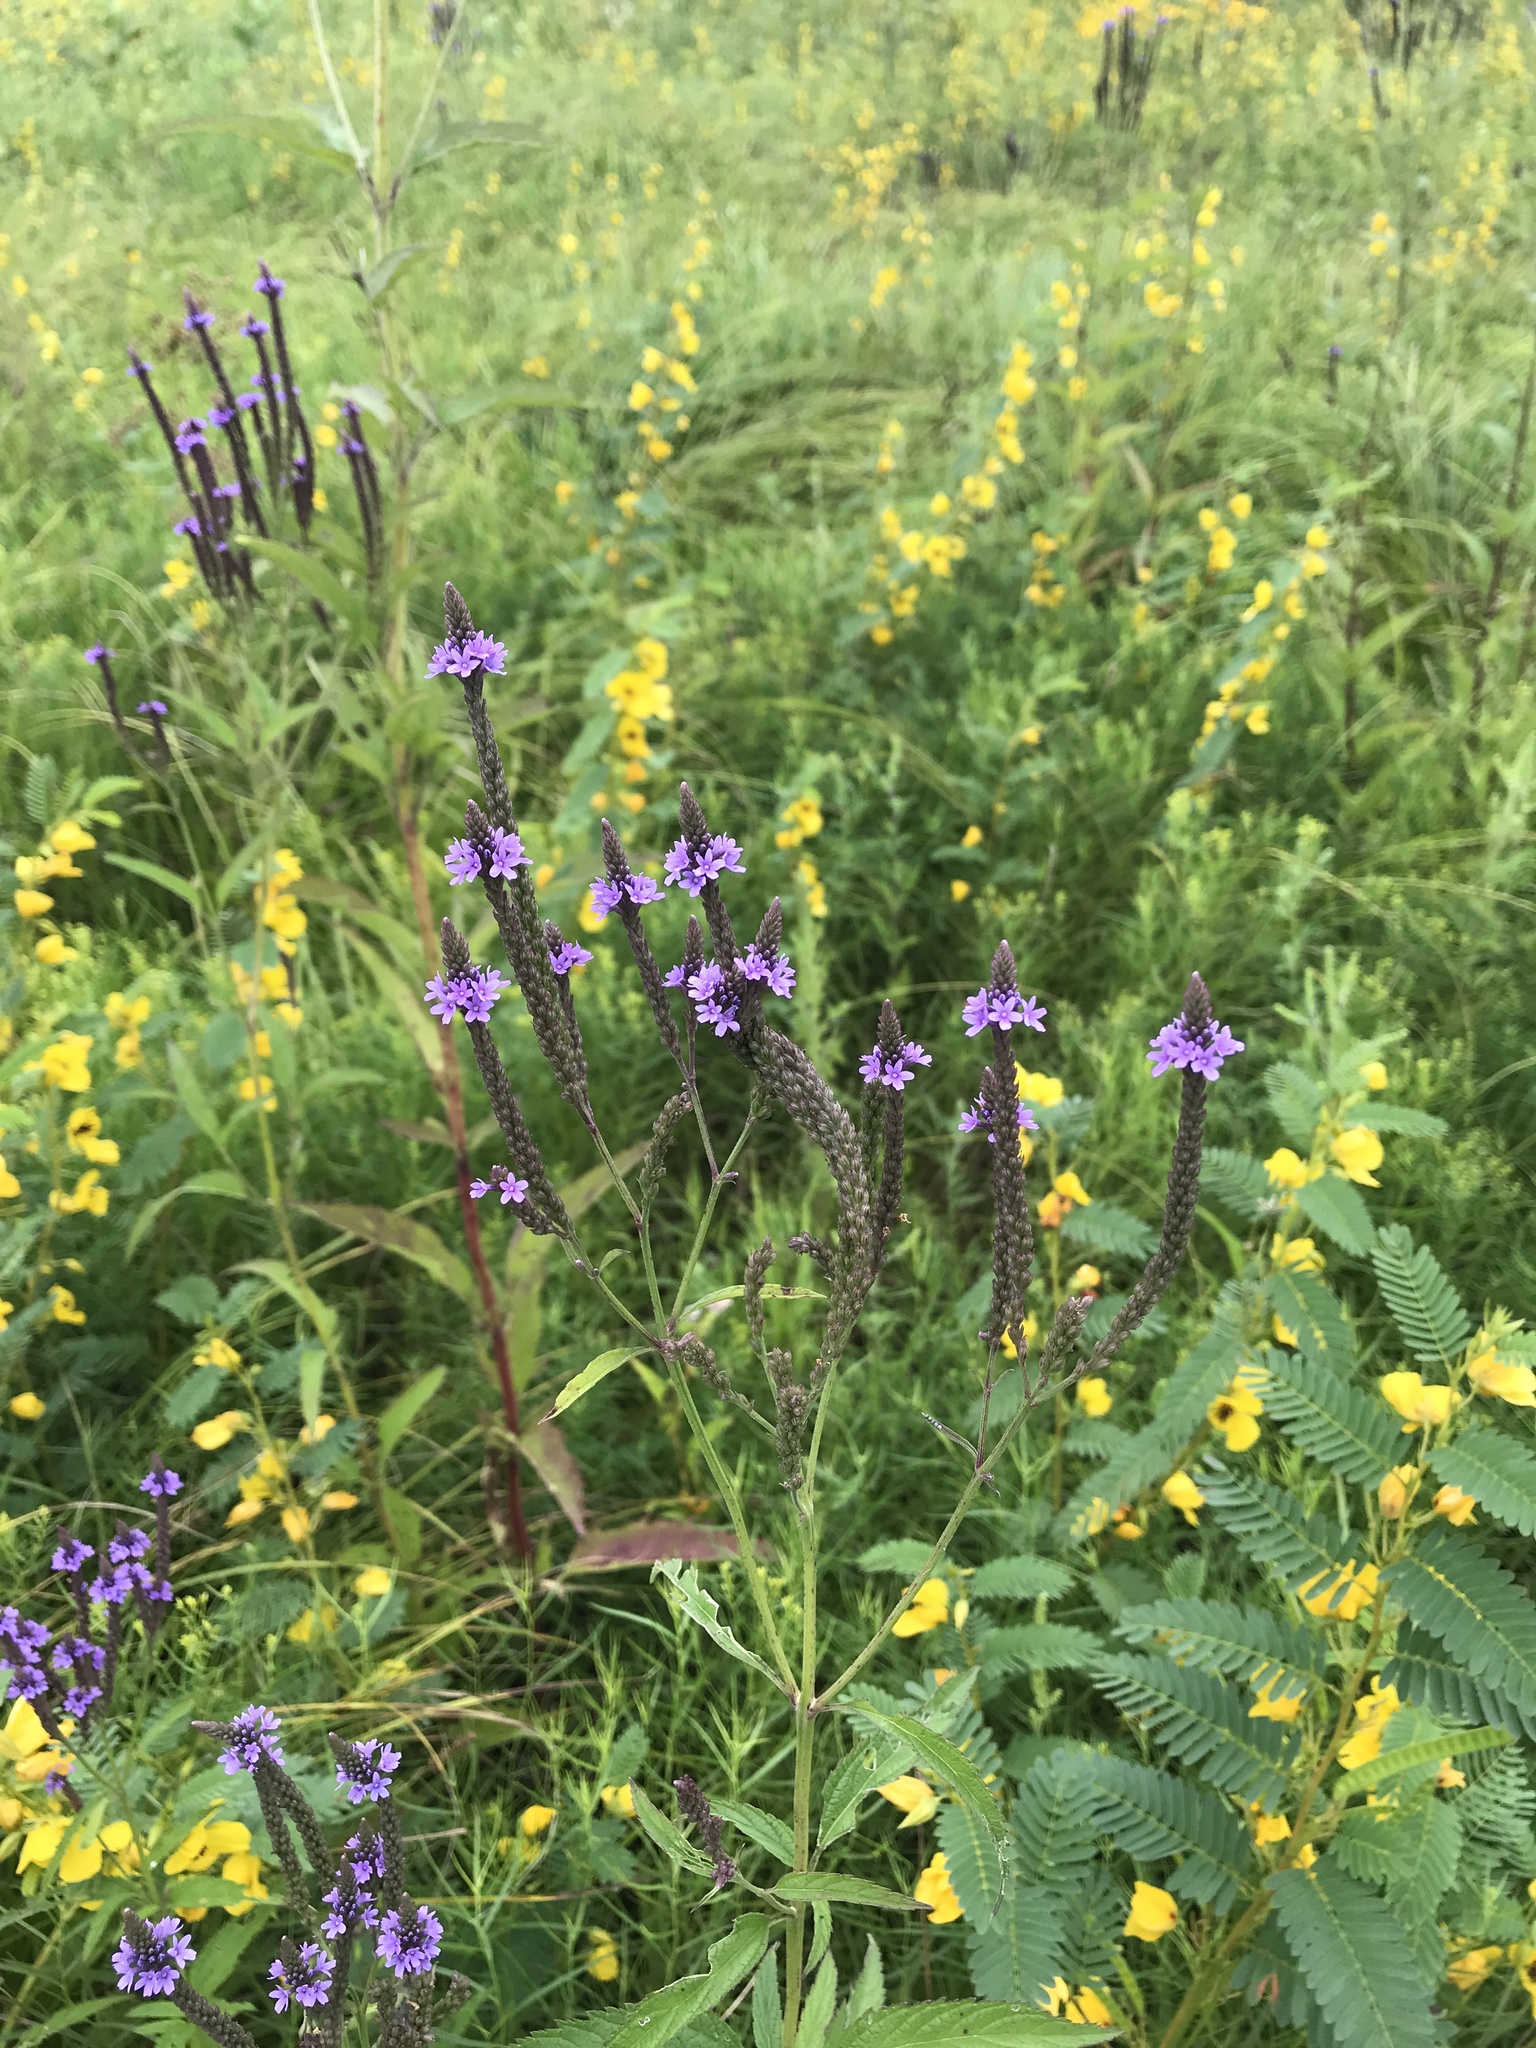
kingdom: Plantae
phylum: Tracheophyta
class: Magnoliopsida
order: Lamiales
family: Verbenaceae
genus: Verbena
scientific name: Verbena hastata
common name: American blue vervain
